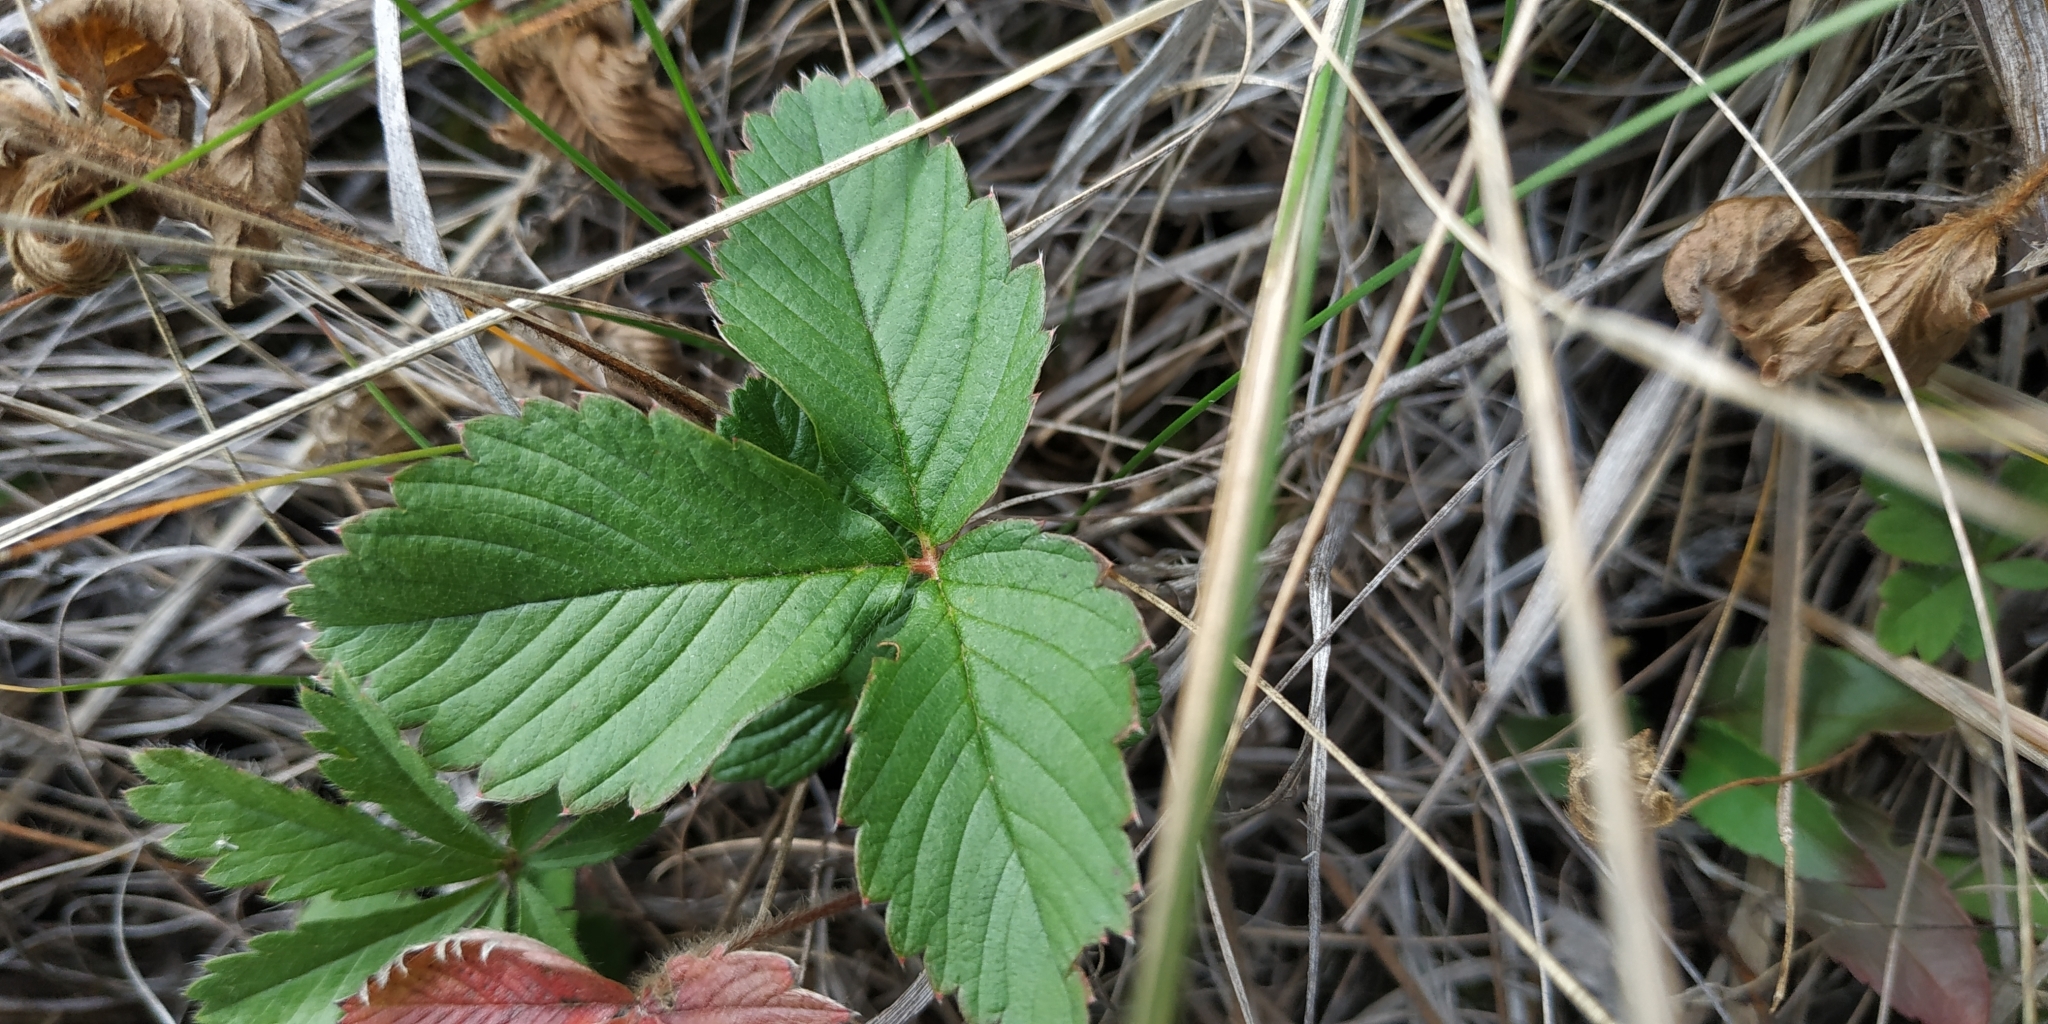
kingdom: Plantae
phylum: Tracheophyta
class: Magnoliopsida
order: Rosales
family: Rosaceae
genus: Fragaria
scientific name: Fragaria viridis
